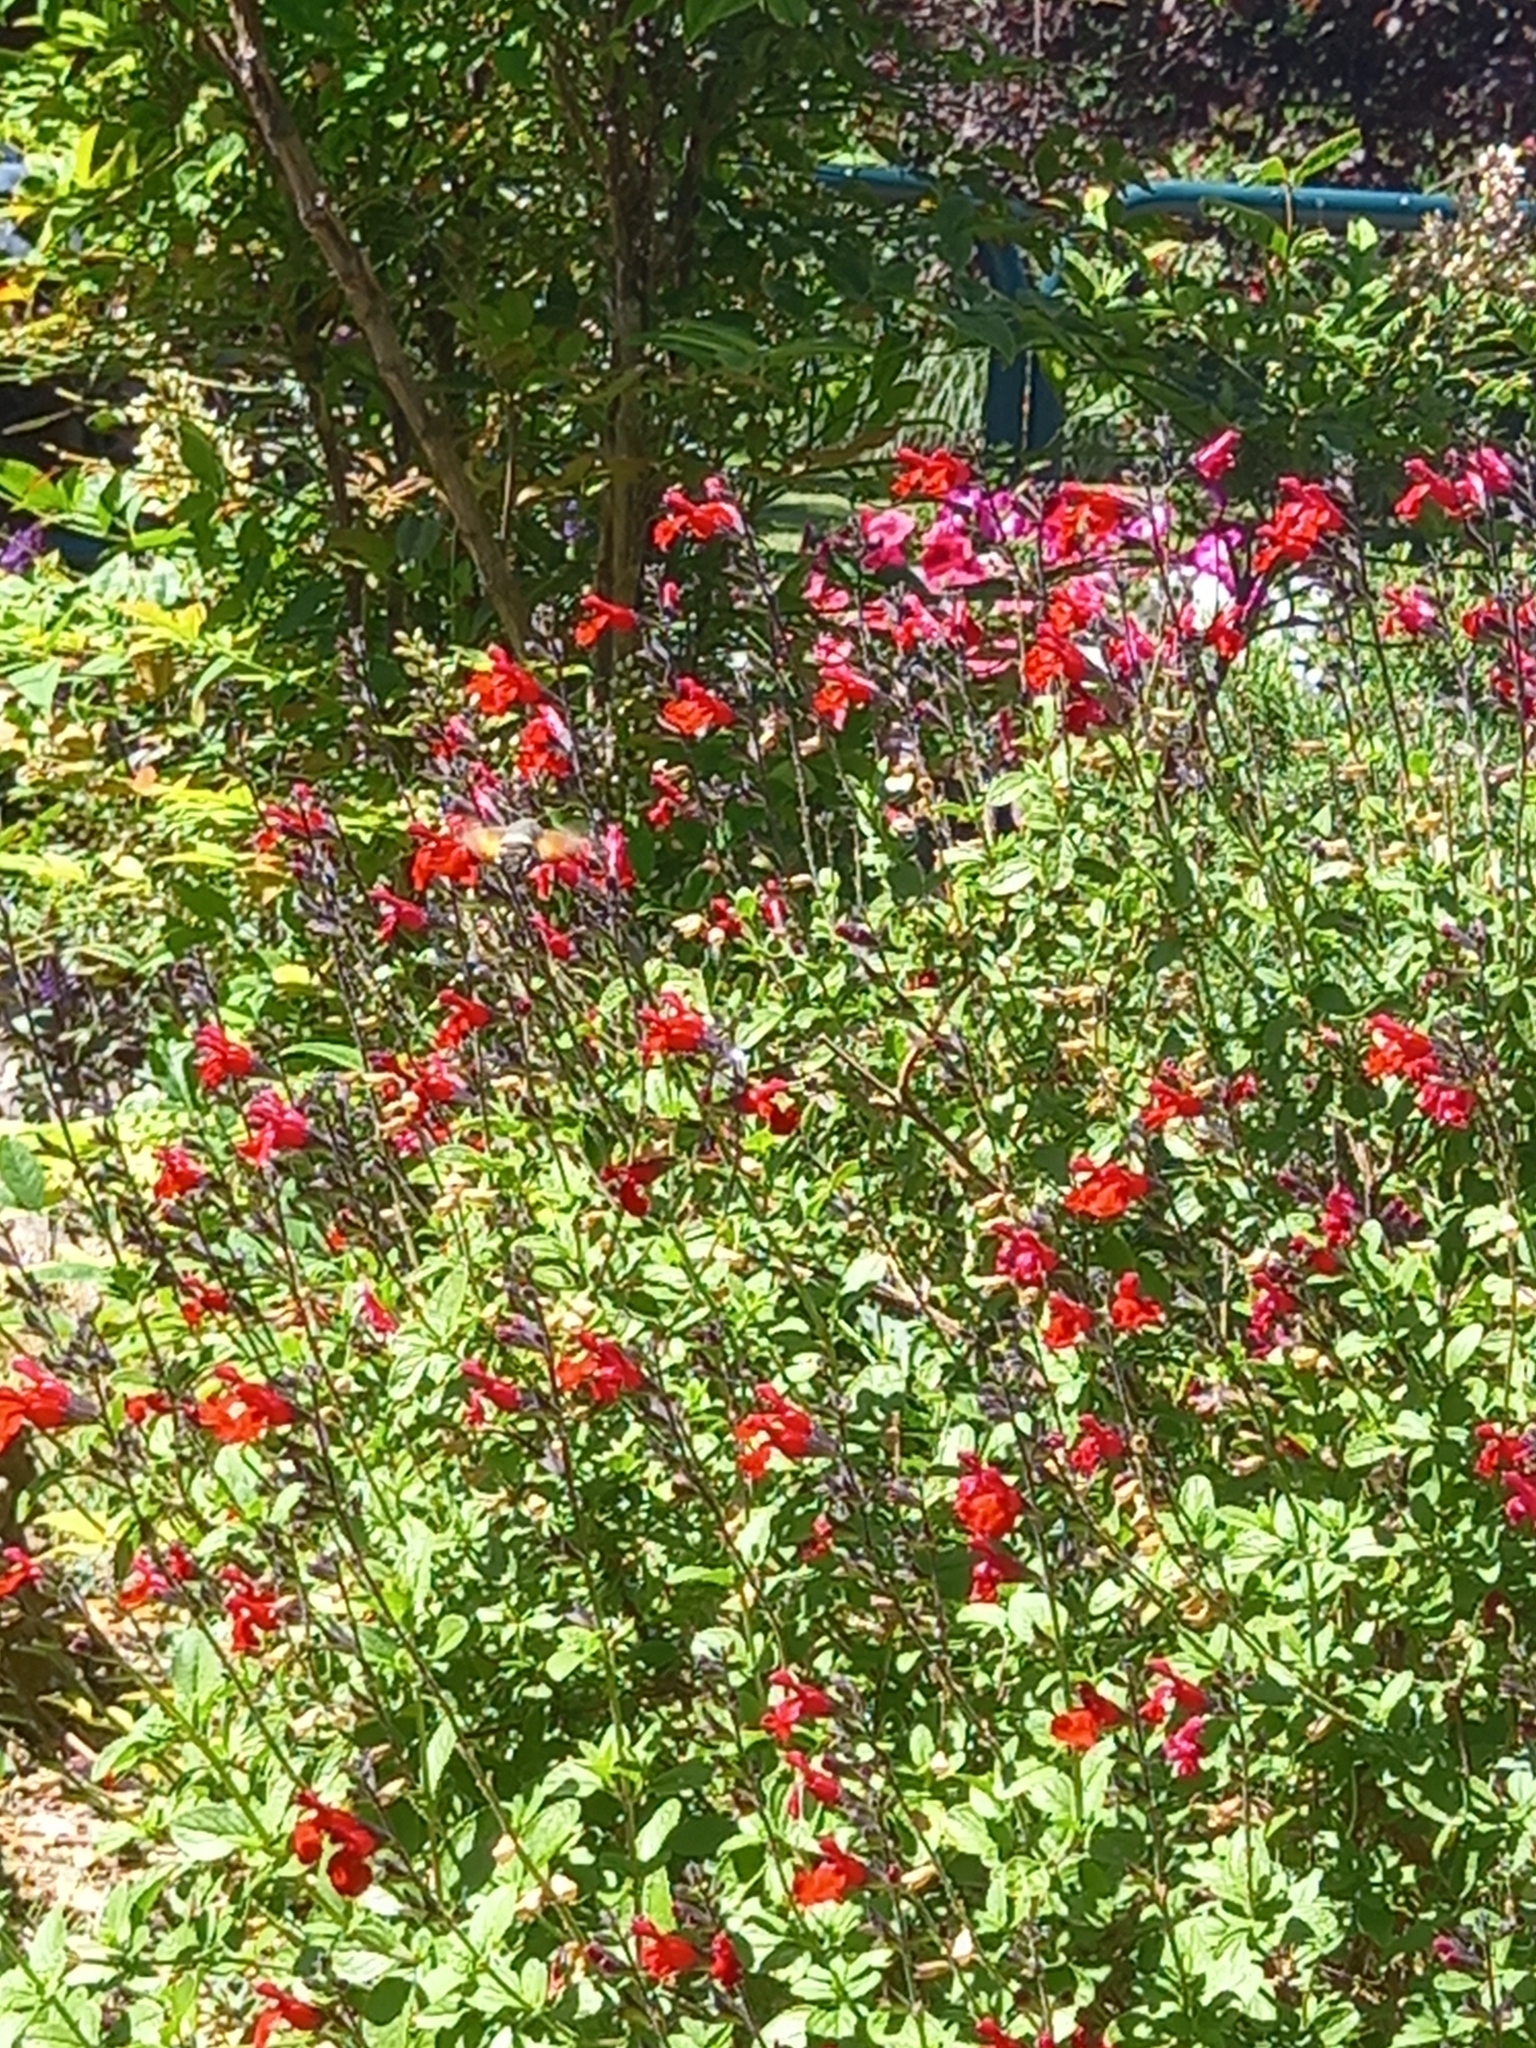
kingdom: Animalia
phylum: Arthropoda
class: Insecta
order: Lepidoptera
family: Sphingidae
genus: Macroglossum
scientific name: Macroglossum stellatarum
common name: Humming-bird hawk-moth
